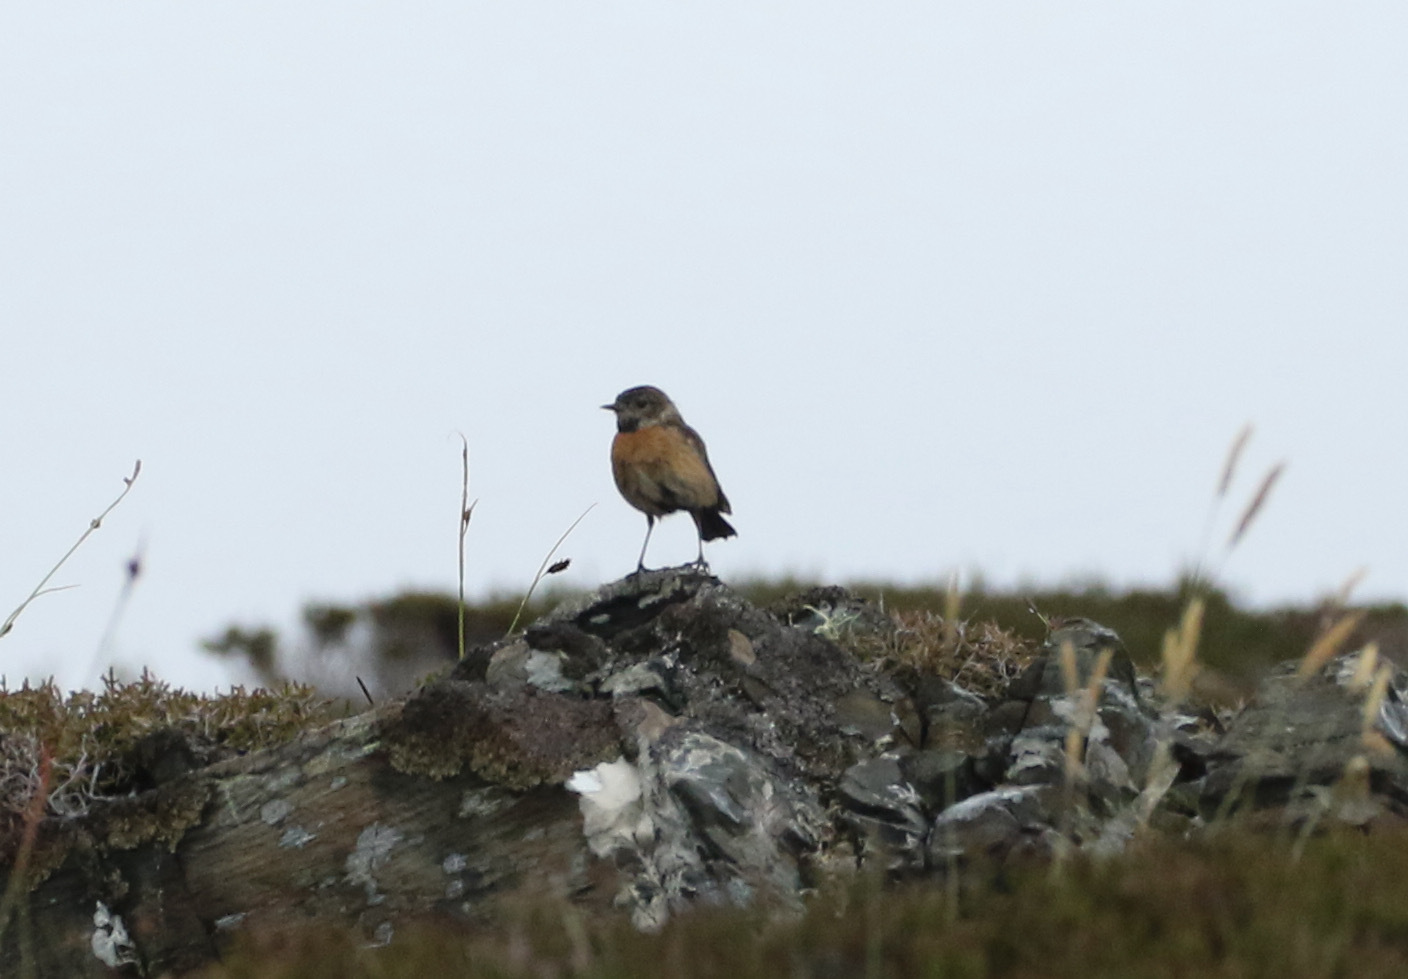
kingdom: Animalia
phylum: Chordata
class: Aves
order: Passeriformes
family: Muscicapidae
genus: Saxicola
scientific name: Saxicola rubicola
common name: European stonechat
